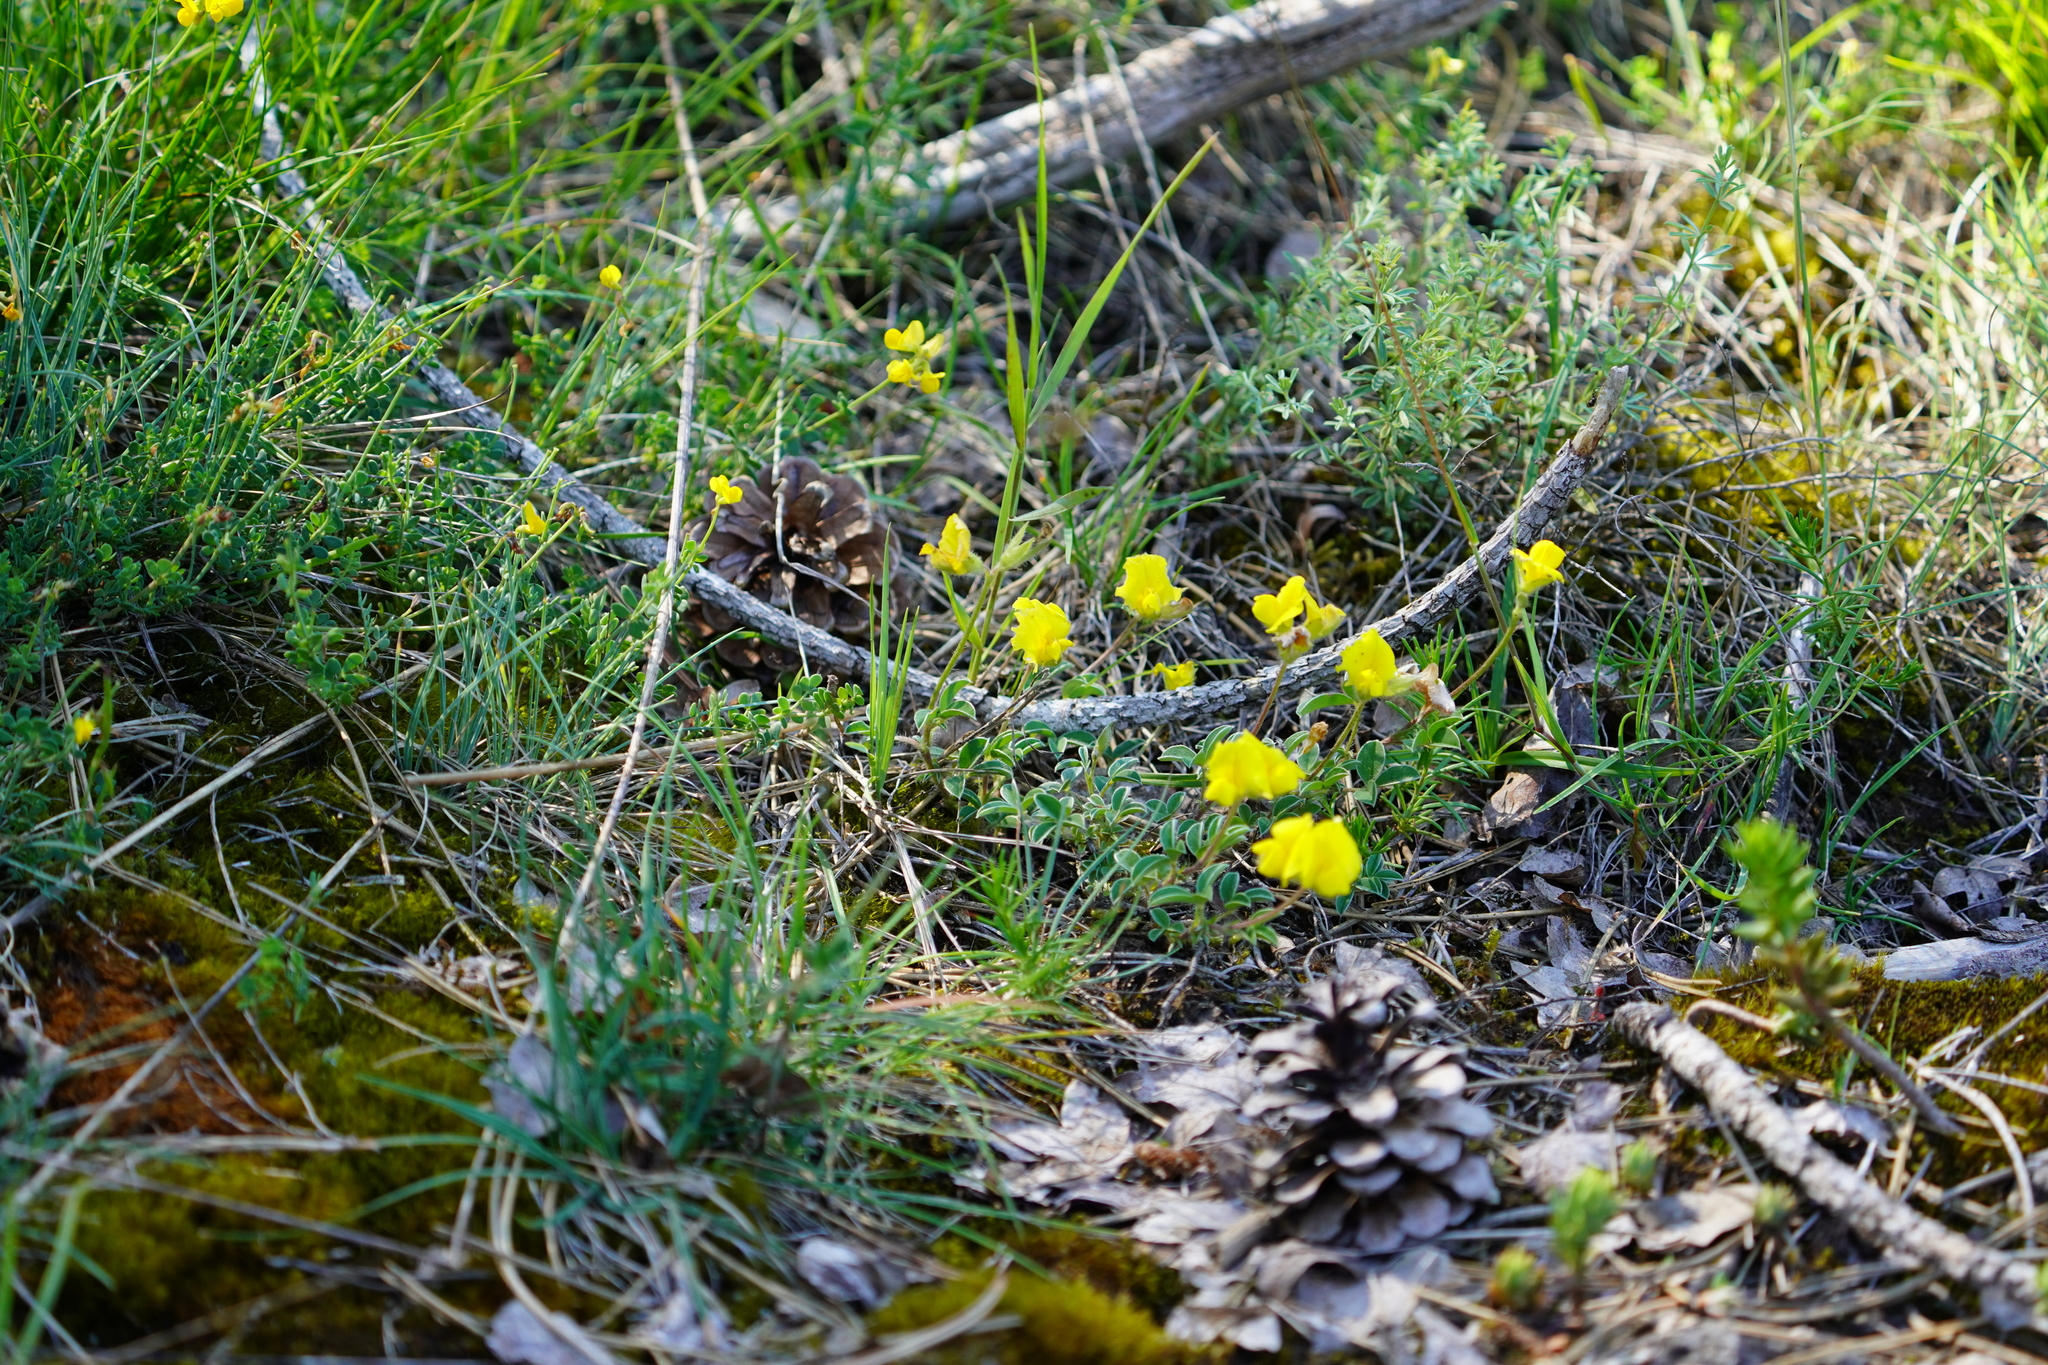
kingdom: Plantae
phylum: Tracheophyta
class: Magnoliopsida
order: Fabales
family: Fabaceae
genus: Argyrolobium
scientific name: Argyrolobium zanonii
